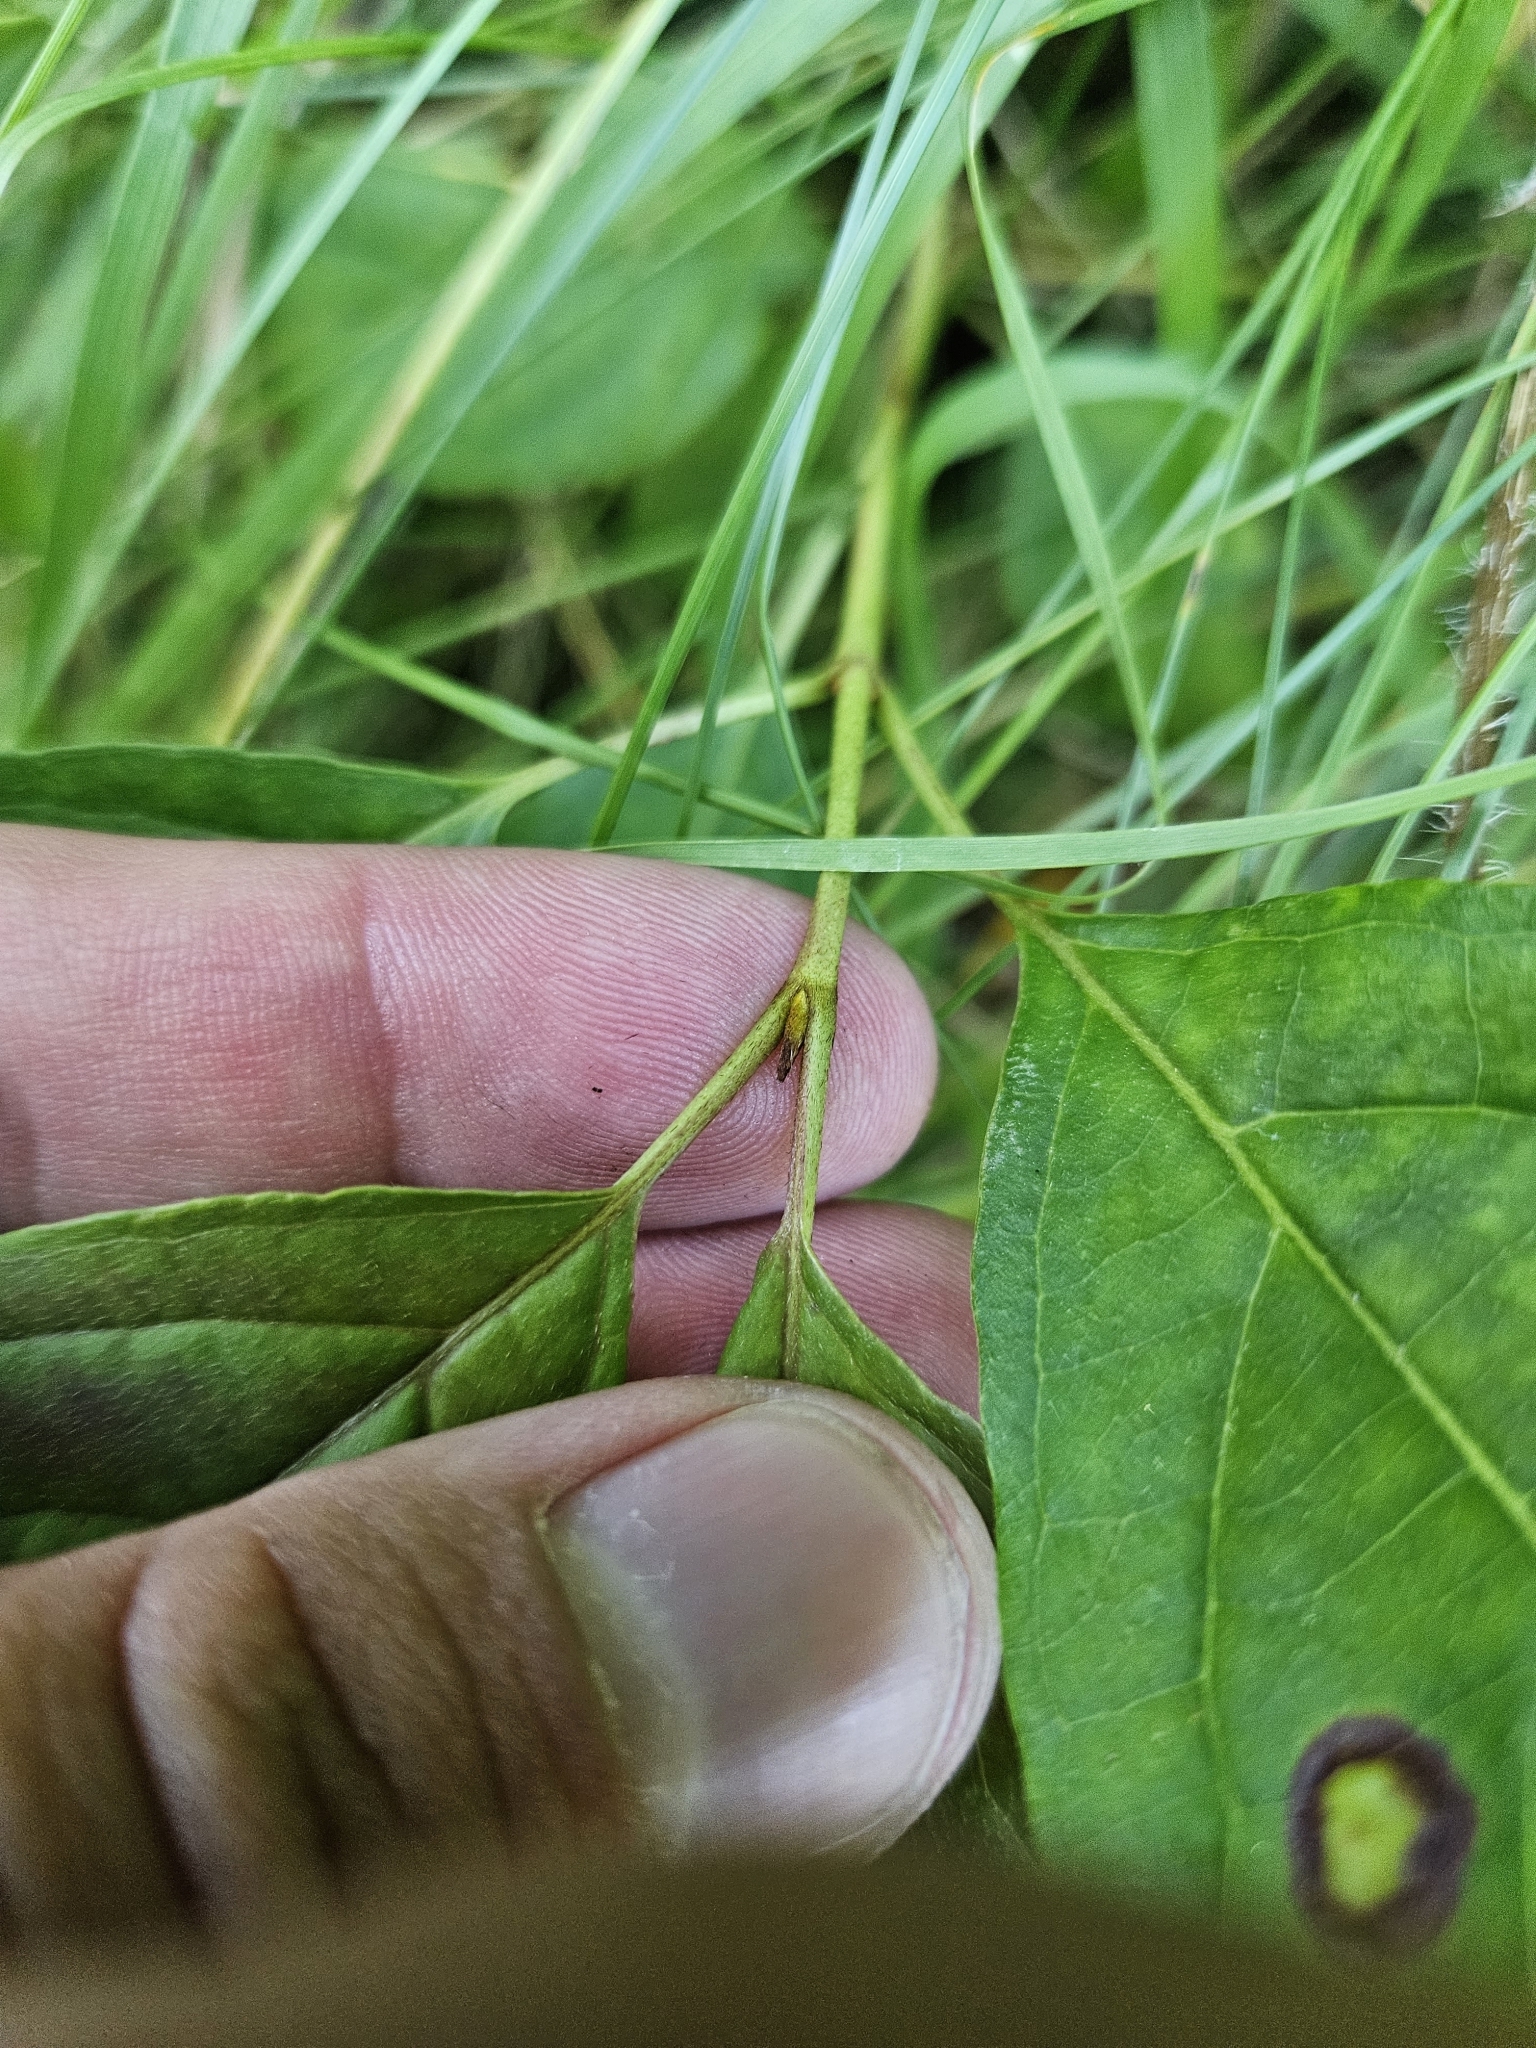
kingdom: Animalia
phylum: Arthropoda
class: Insecta
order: Diptera
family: Cecidomyiidae
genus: Parallelodiplosis
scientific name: Parallelodiplosis subtruncata
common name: Dogwood eyespot gall midge
